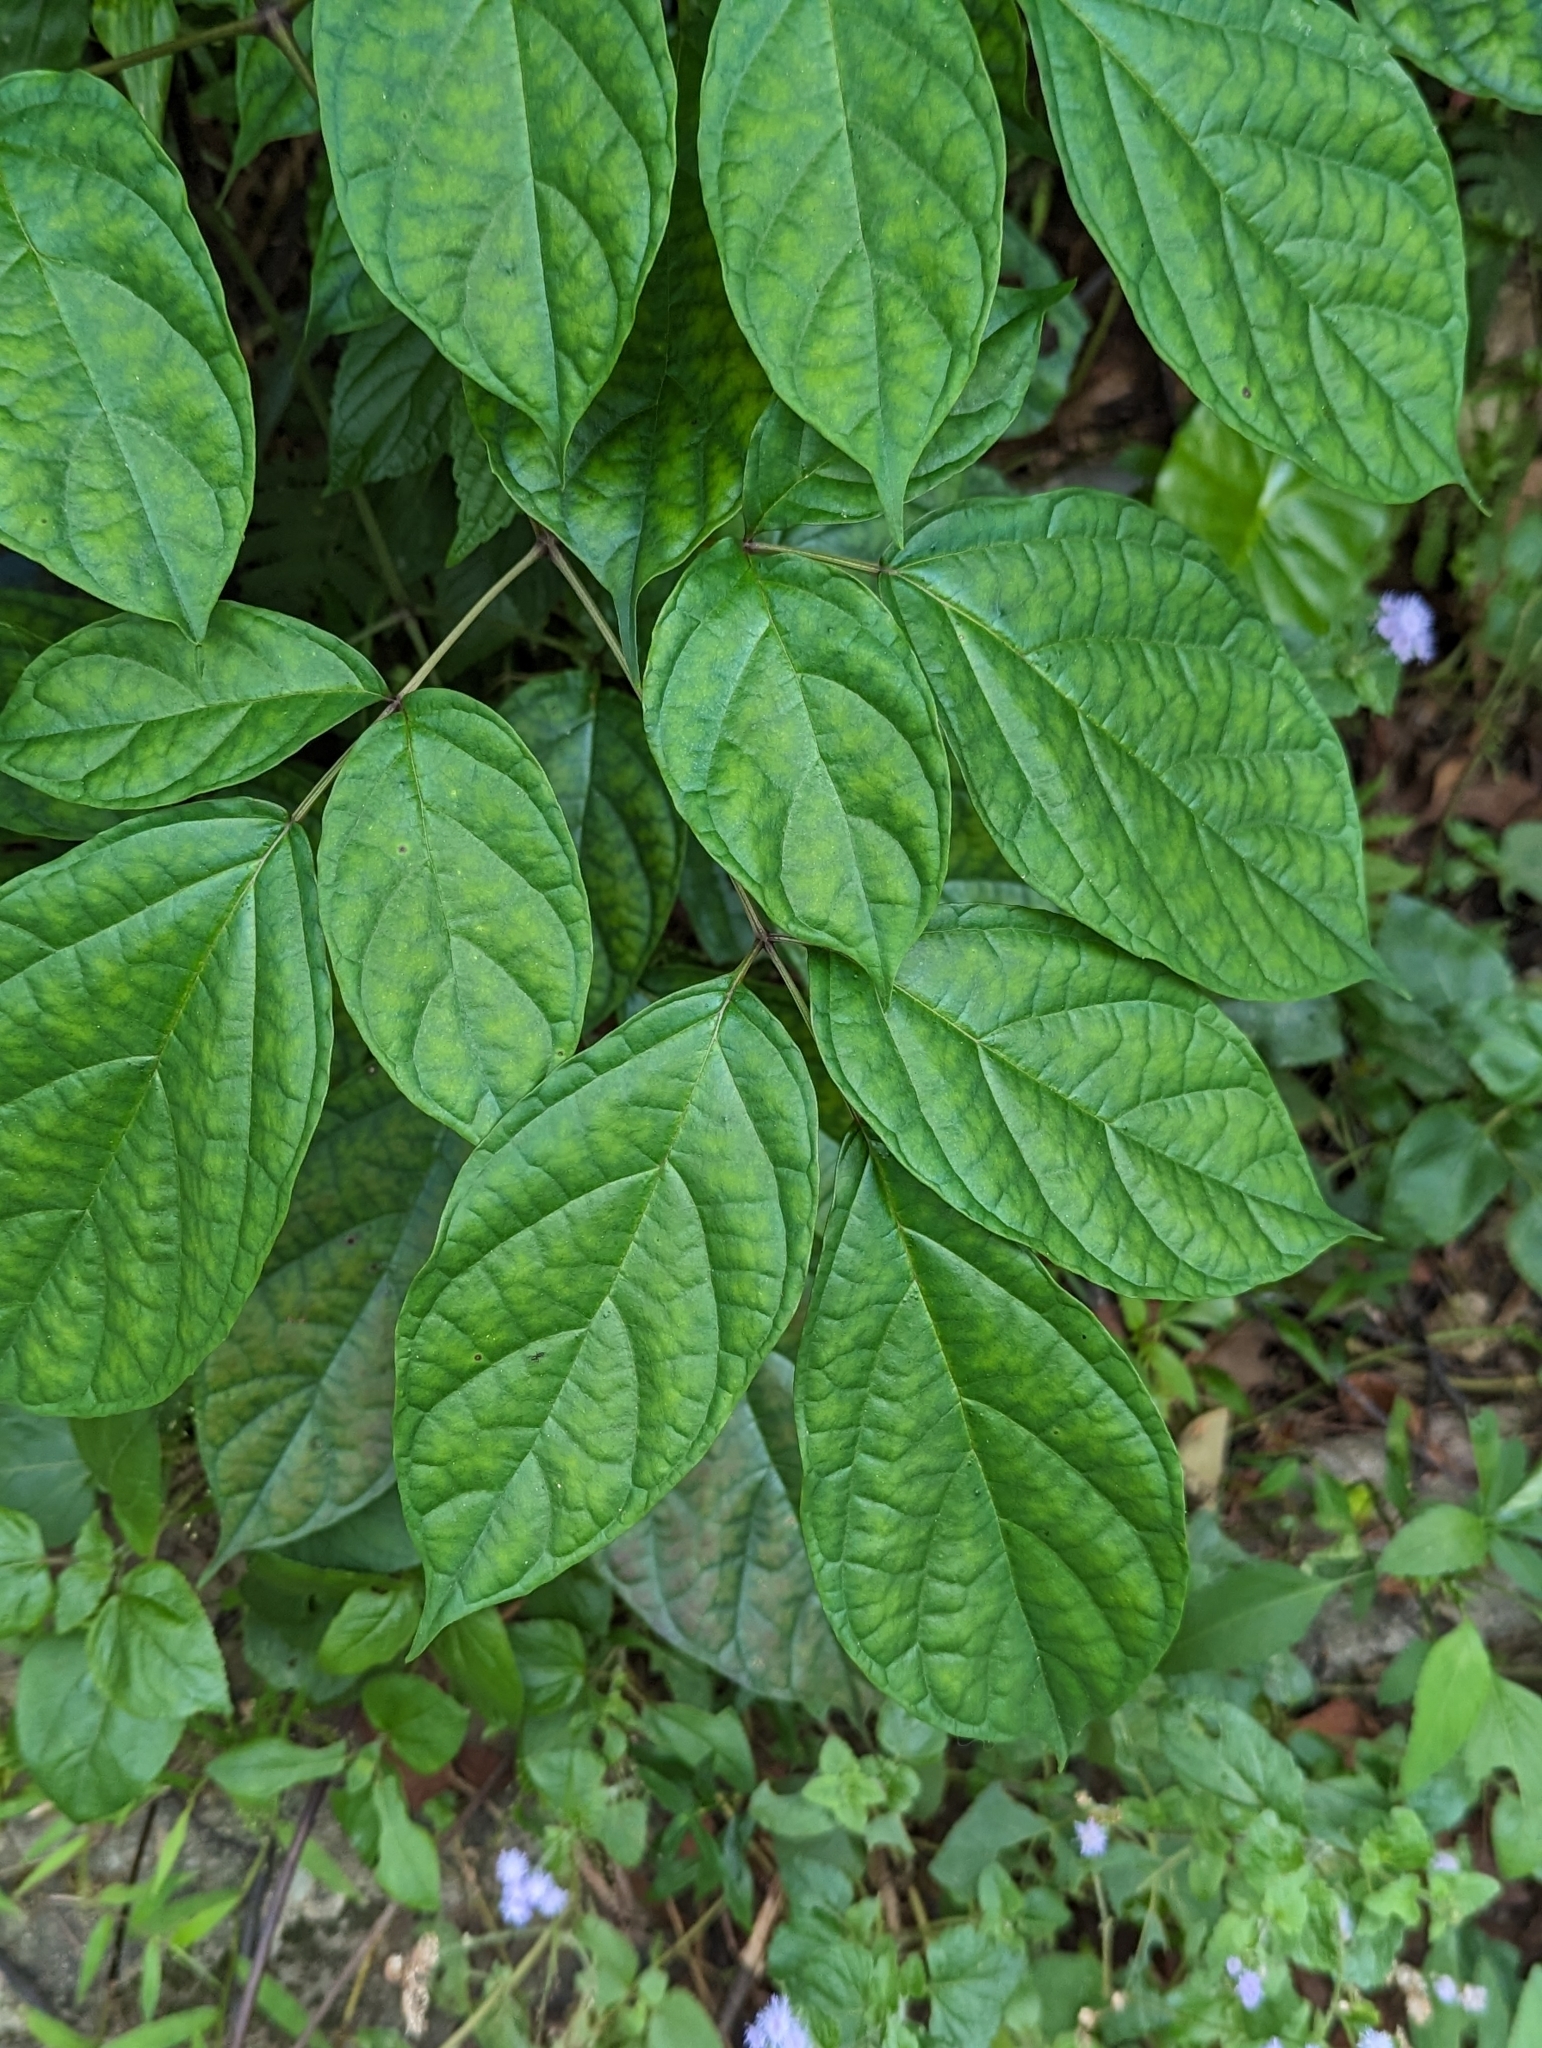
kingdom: Plantae
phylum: Tracheophyta
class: Magnoliopsida
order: Lamiales
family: Bignoniaceae
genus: Oroxylum
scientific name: Oroxylum indicum
